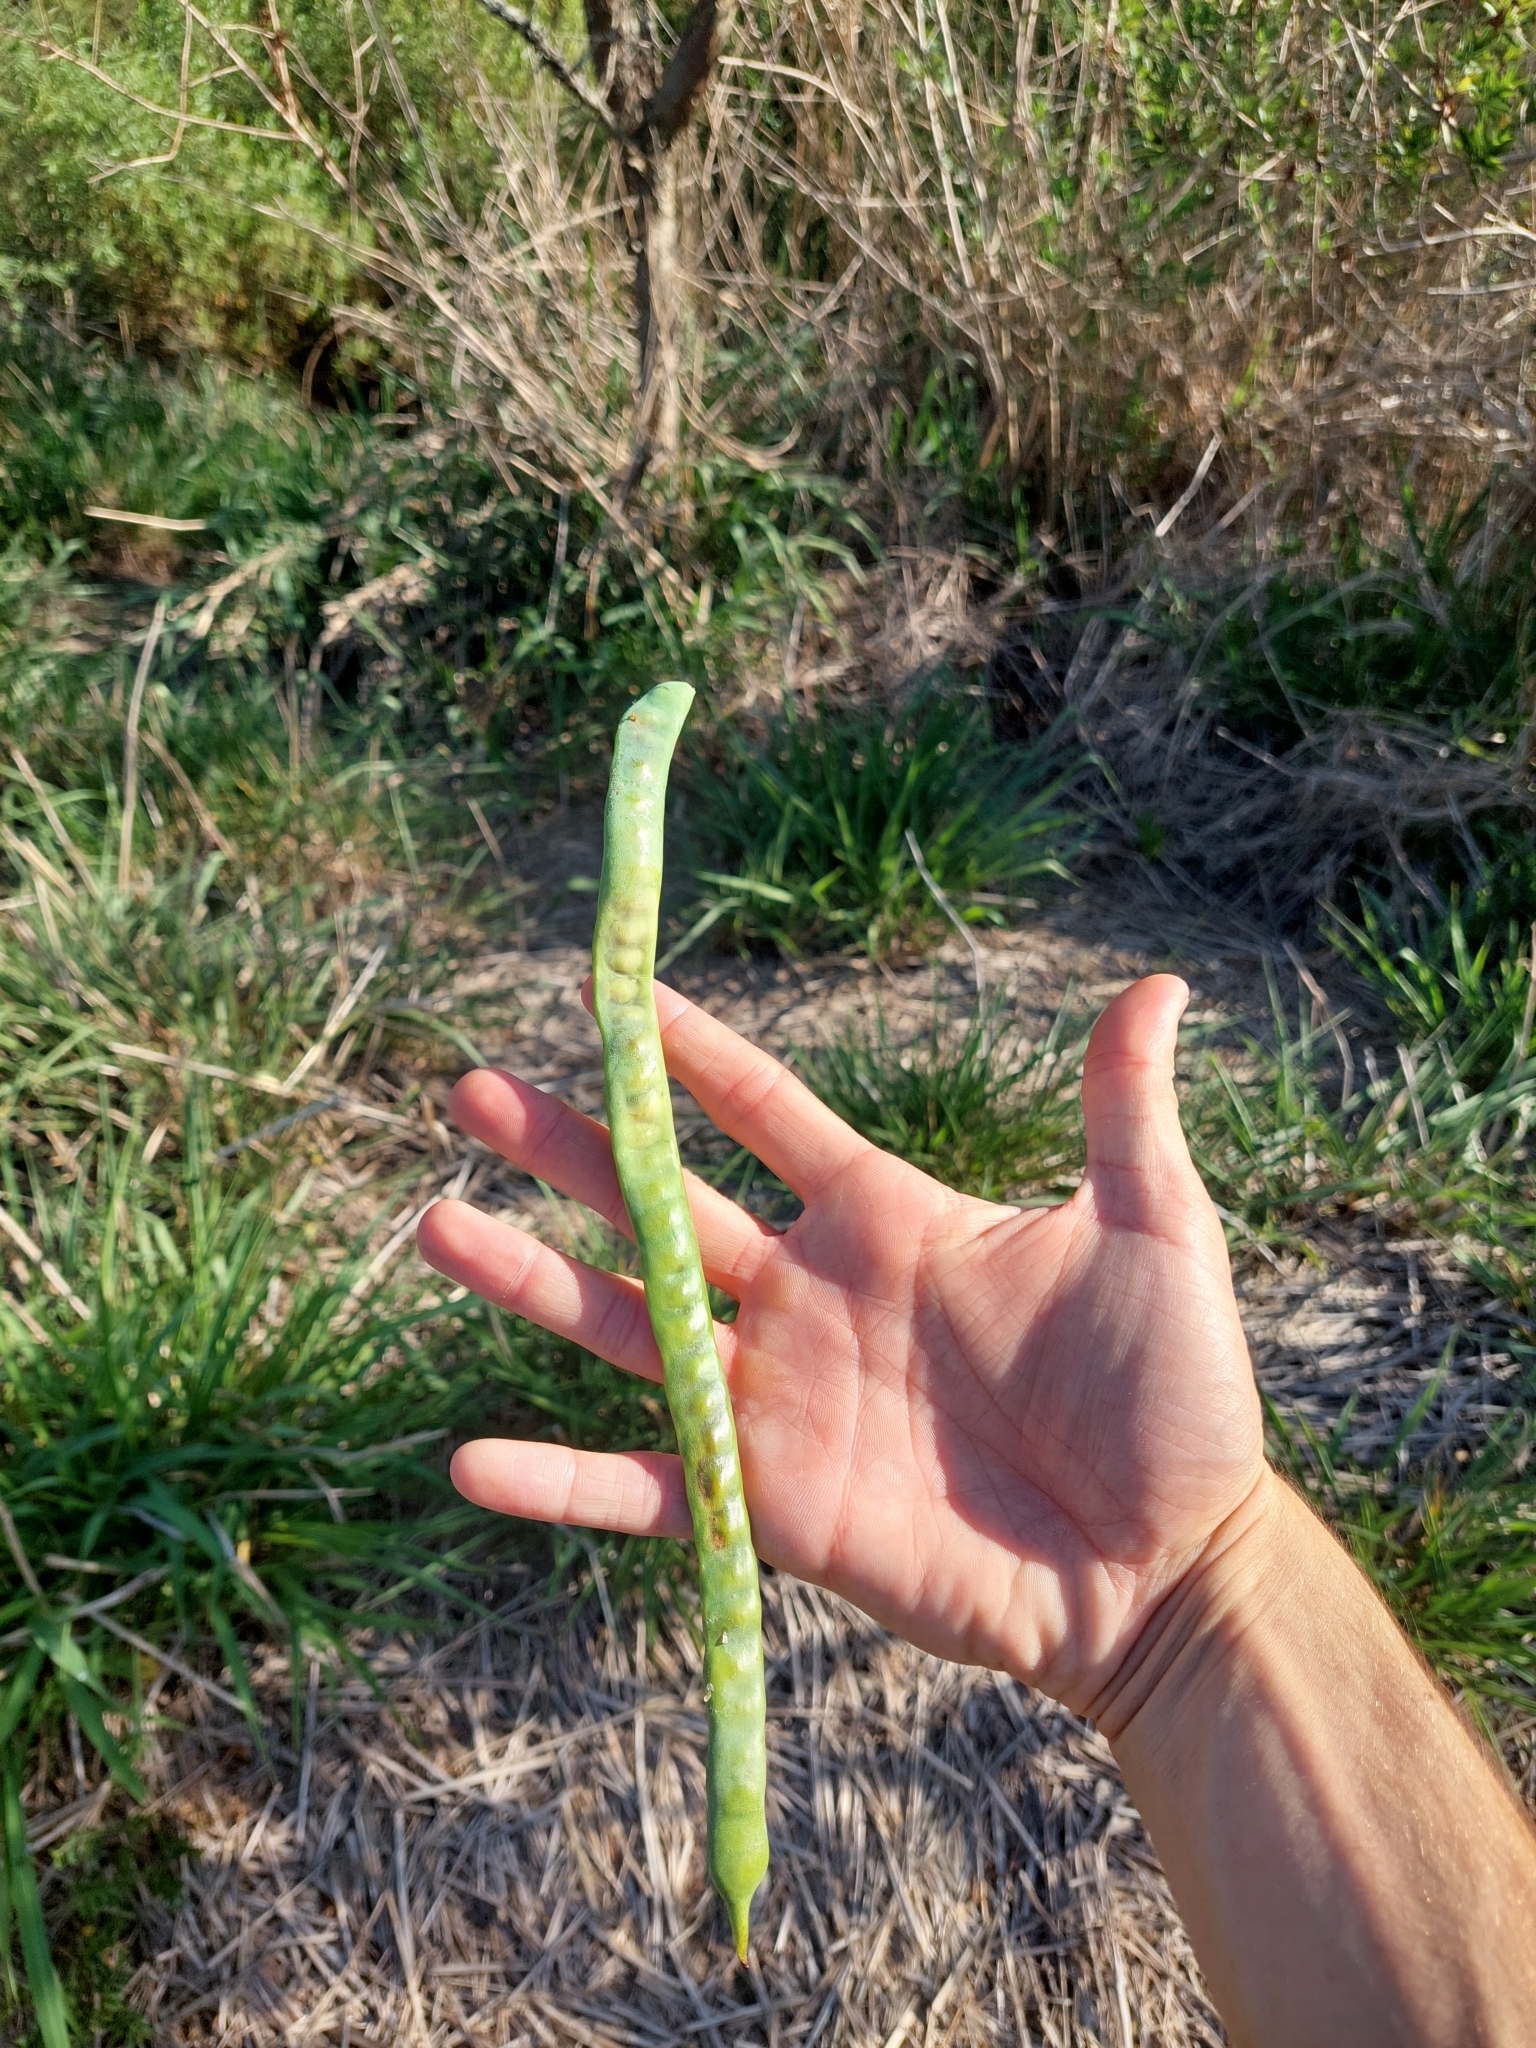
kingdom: Plantae
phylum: Tracheophyta
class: Magnoliopsida
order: Fabales
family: Fabaceae
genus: Prosopis
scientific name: Prosopis alba
